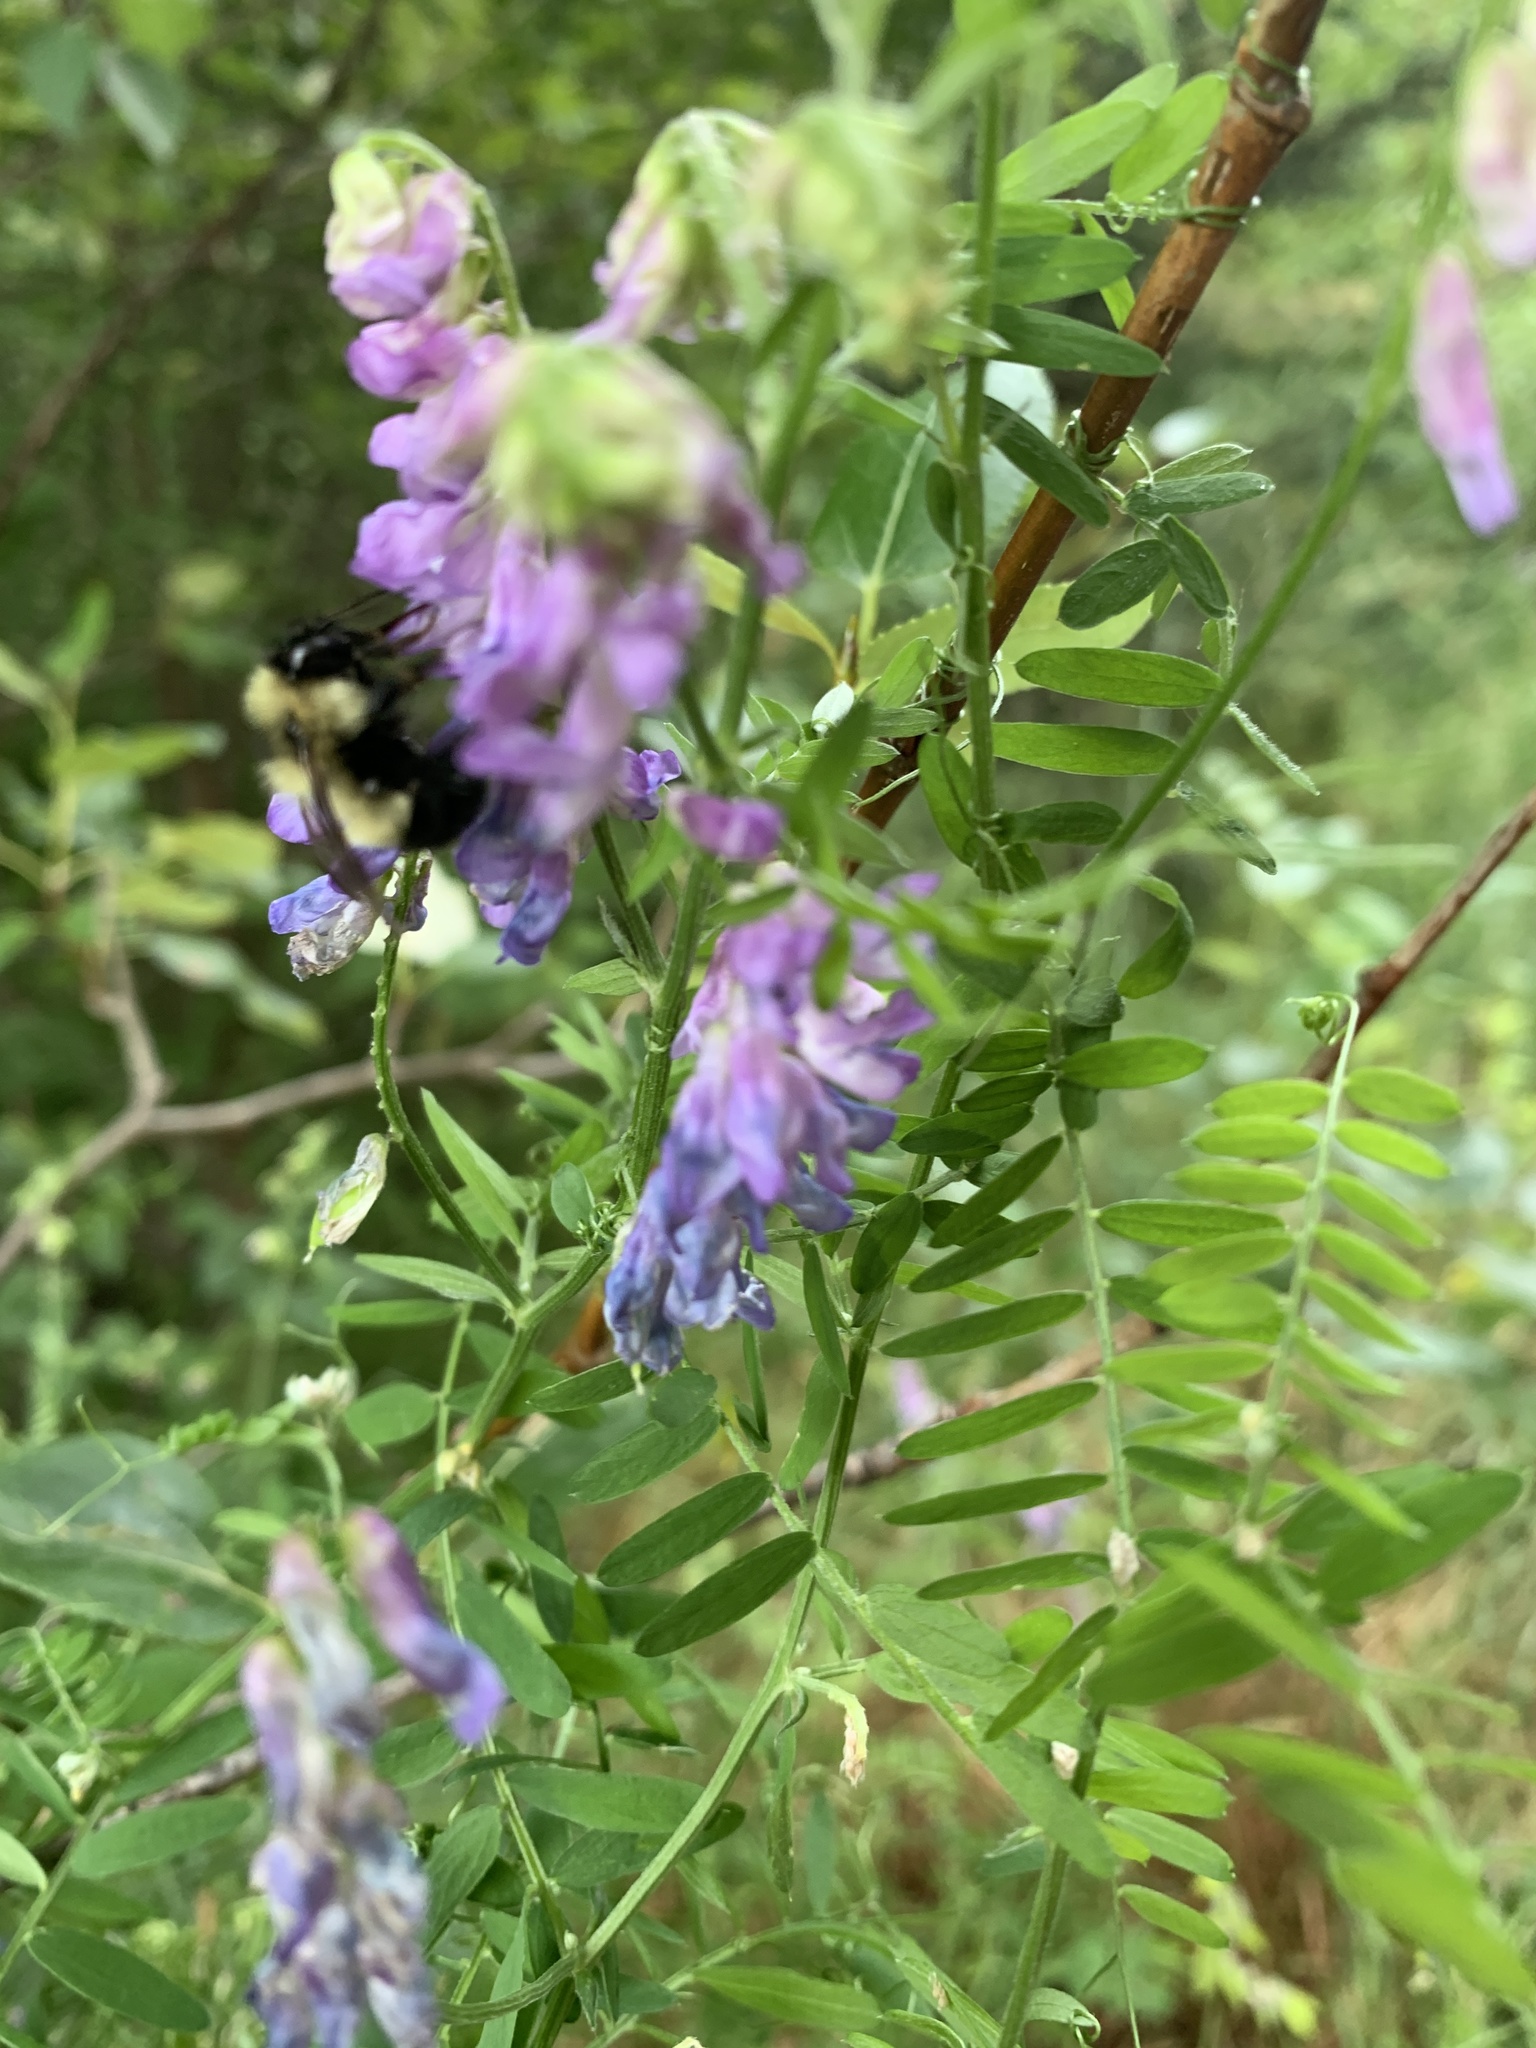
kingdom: Animalia
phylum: Arthropoda
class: Insecta
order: Hymenoptera
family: Apidae
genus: Bombus
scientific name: Bombus vagans
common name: Half-black bumble bee
